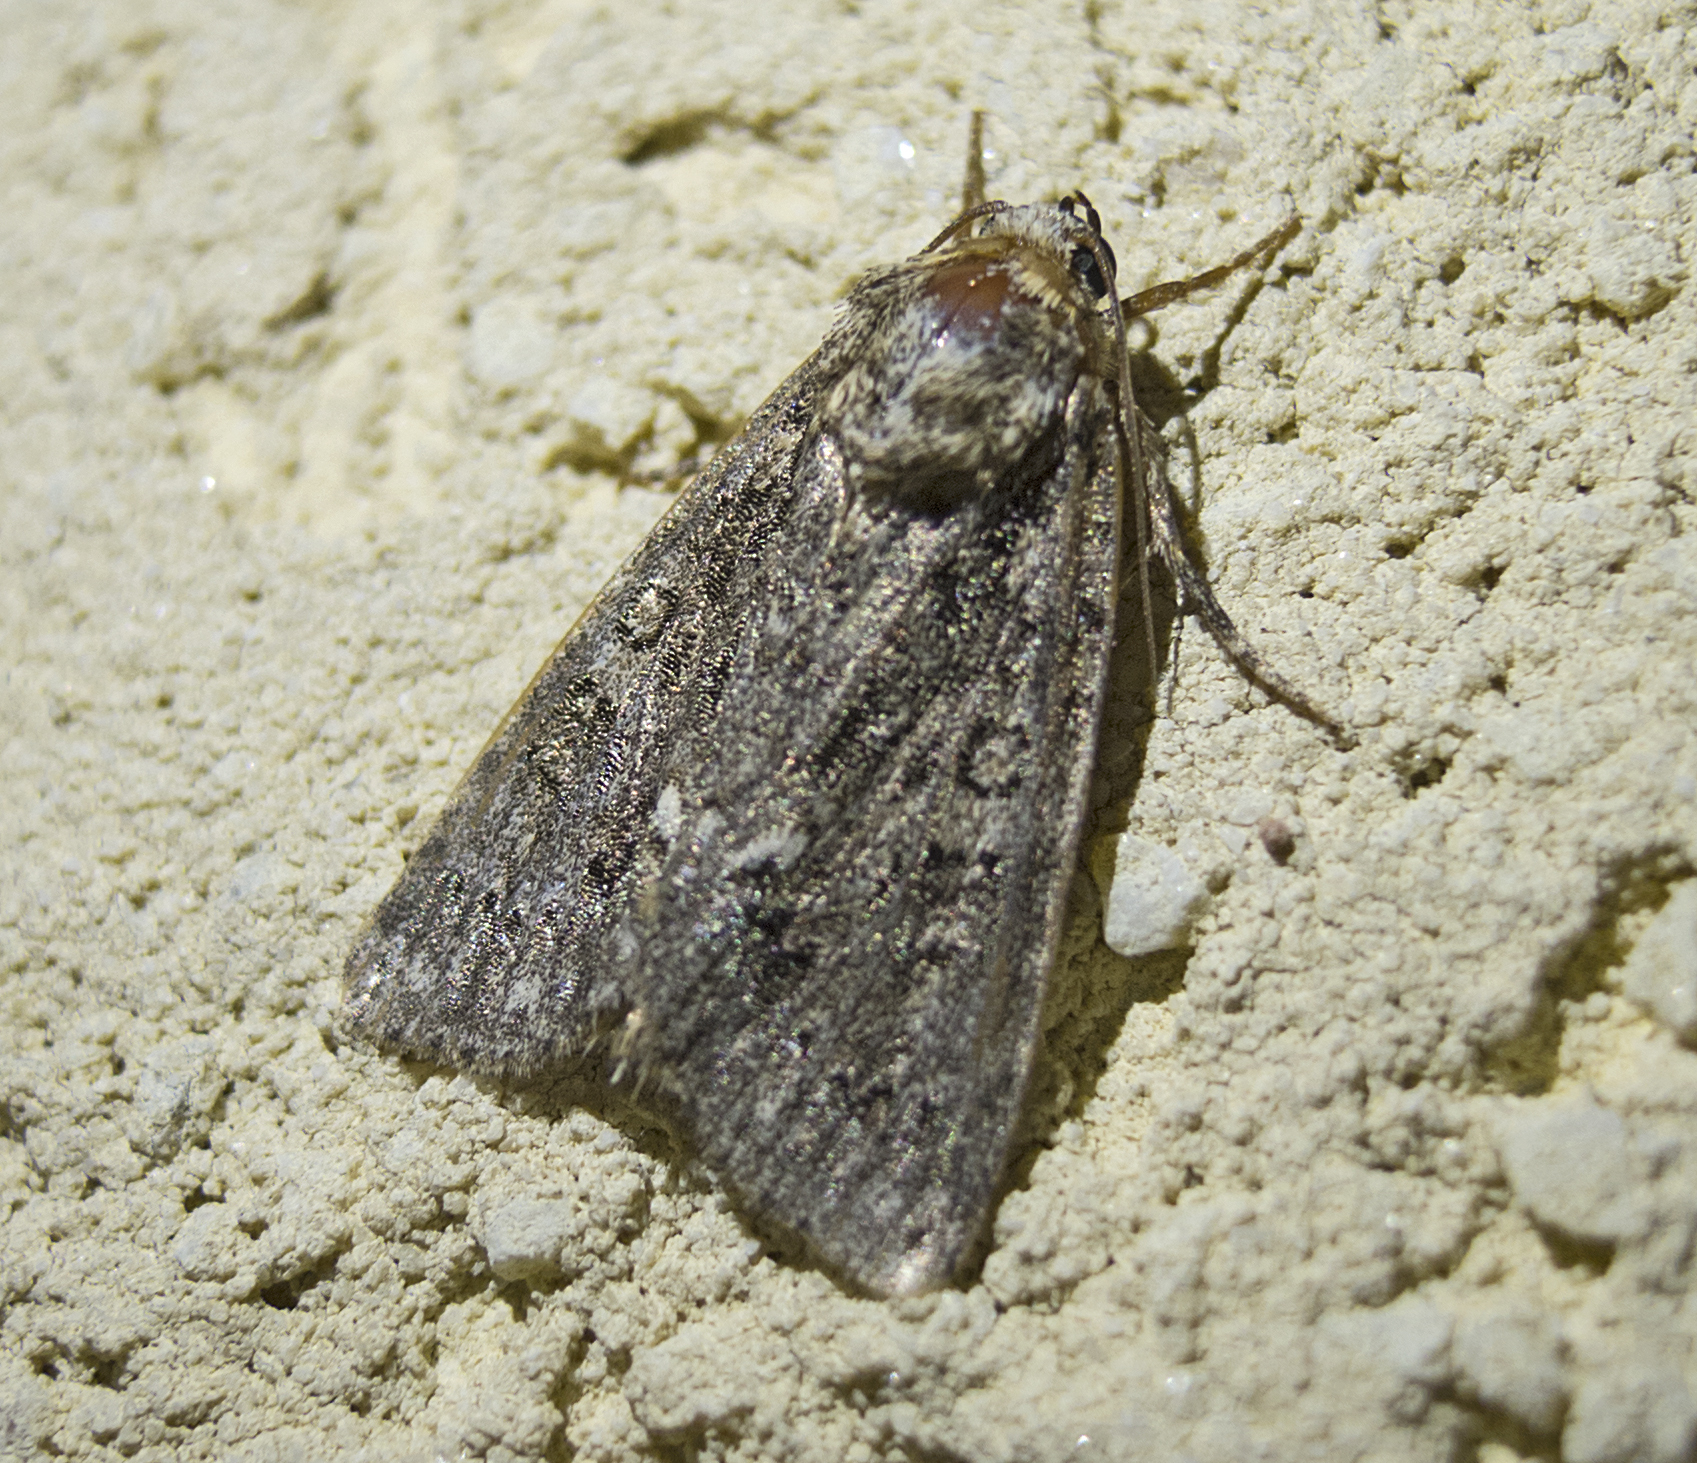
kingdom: Animalia
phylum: Arthropoda
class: Insecta
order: Lepidoptera
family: Noctuidae
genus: Acronicta
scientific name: Acronicta rumicis
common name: Knot grass
